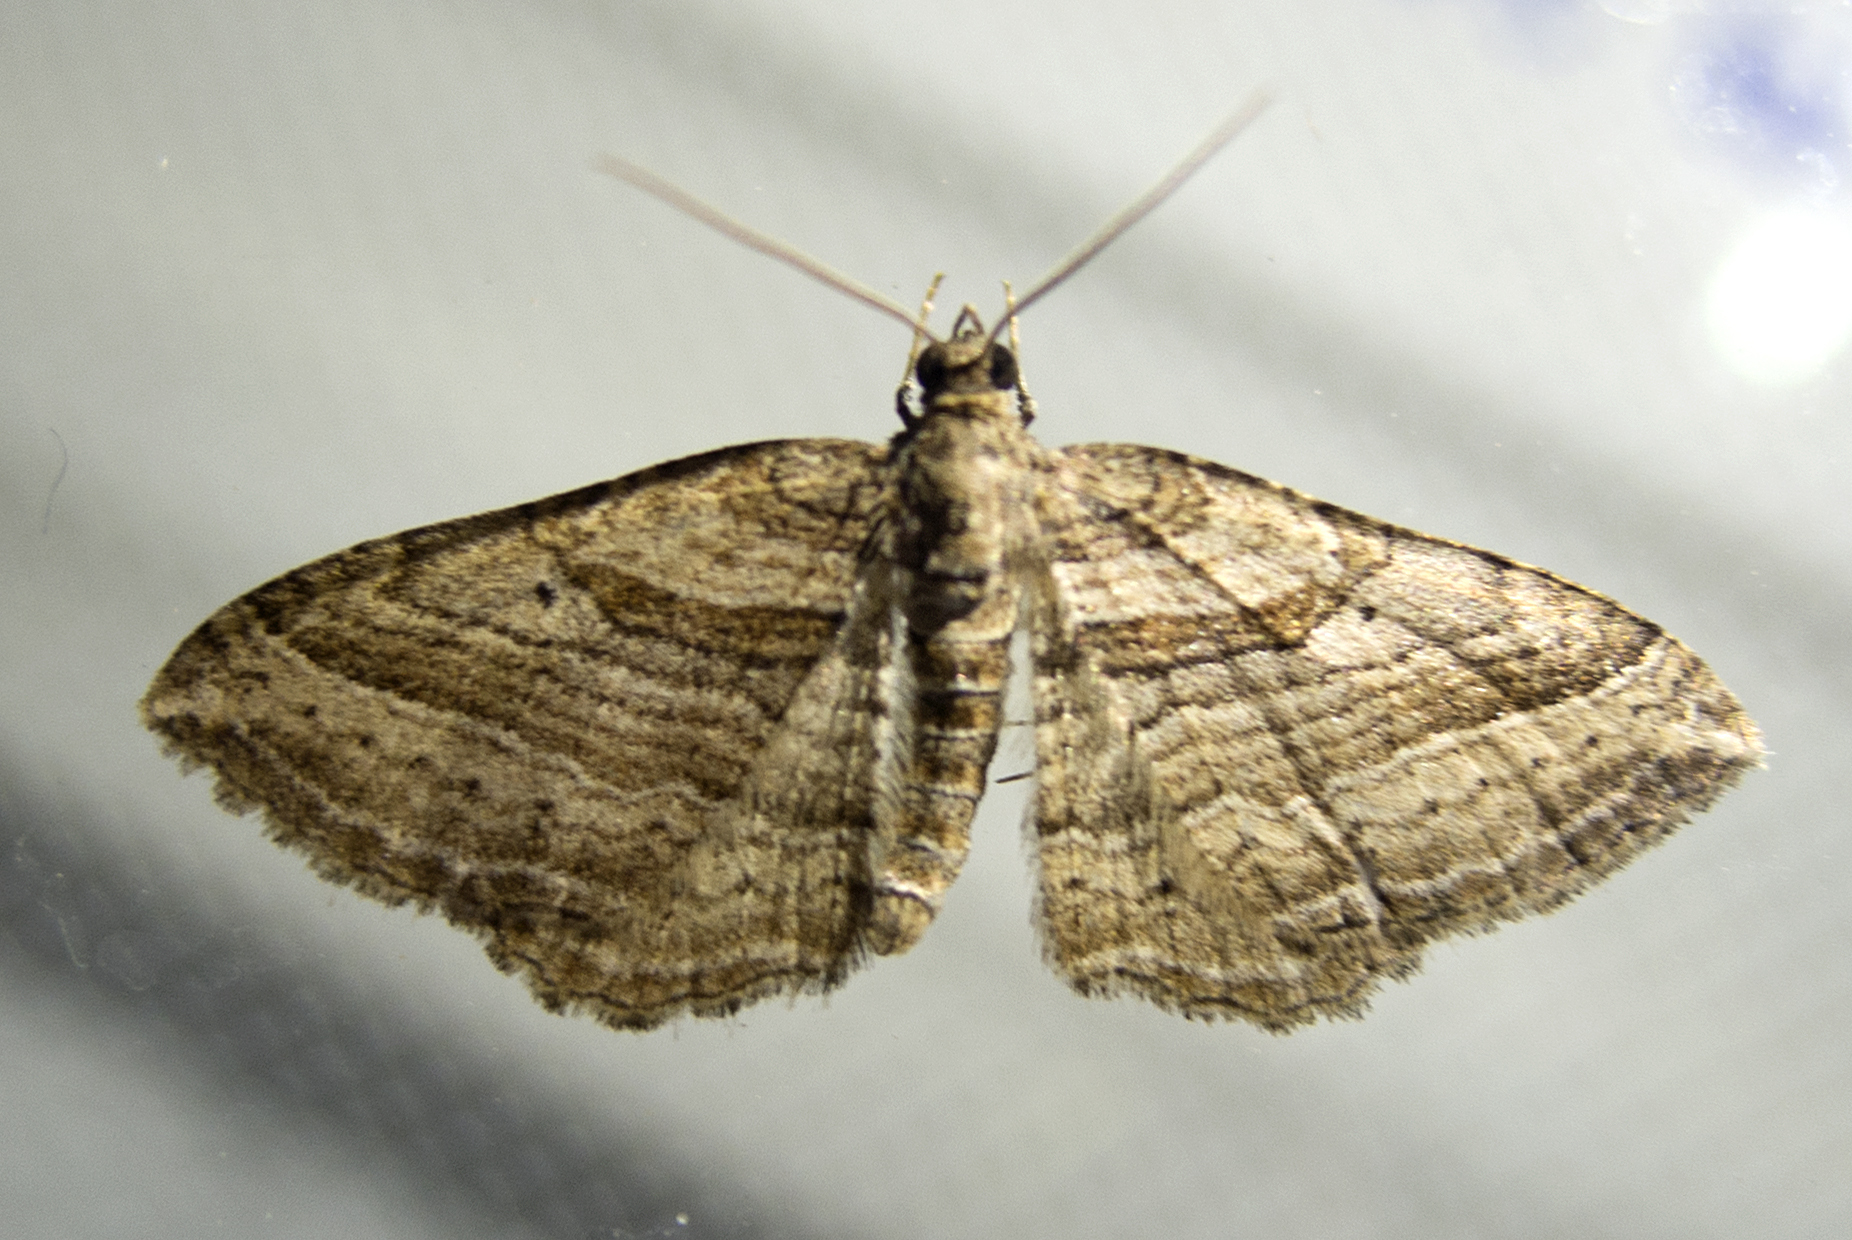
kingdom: Animalia
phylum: Arthropoda
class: Insecta
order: Lepidoptera
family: Geometridae
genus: Costaconvexa
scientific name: Costaconvexa polygrammata
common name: Many-lined
